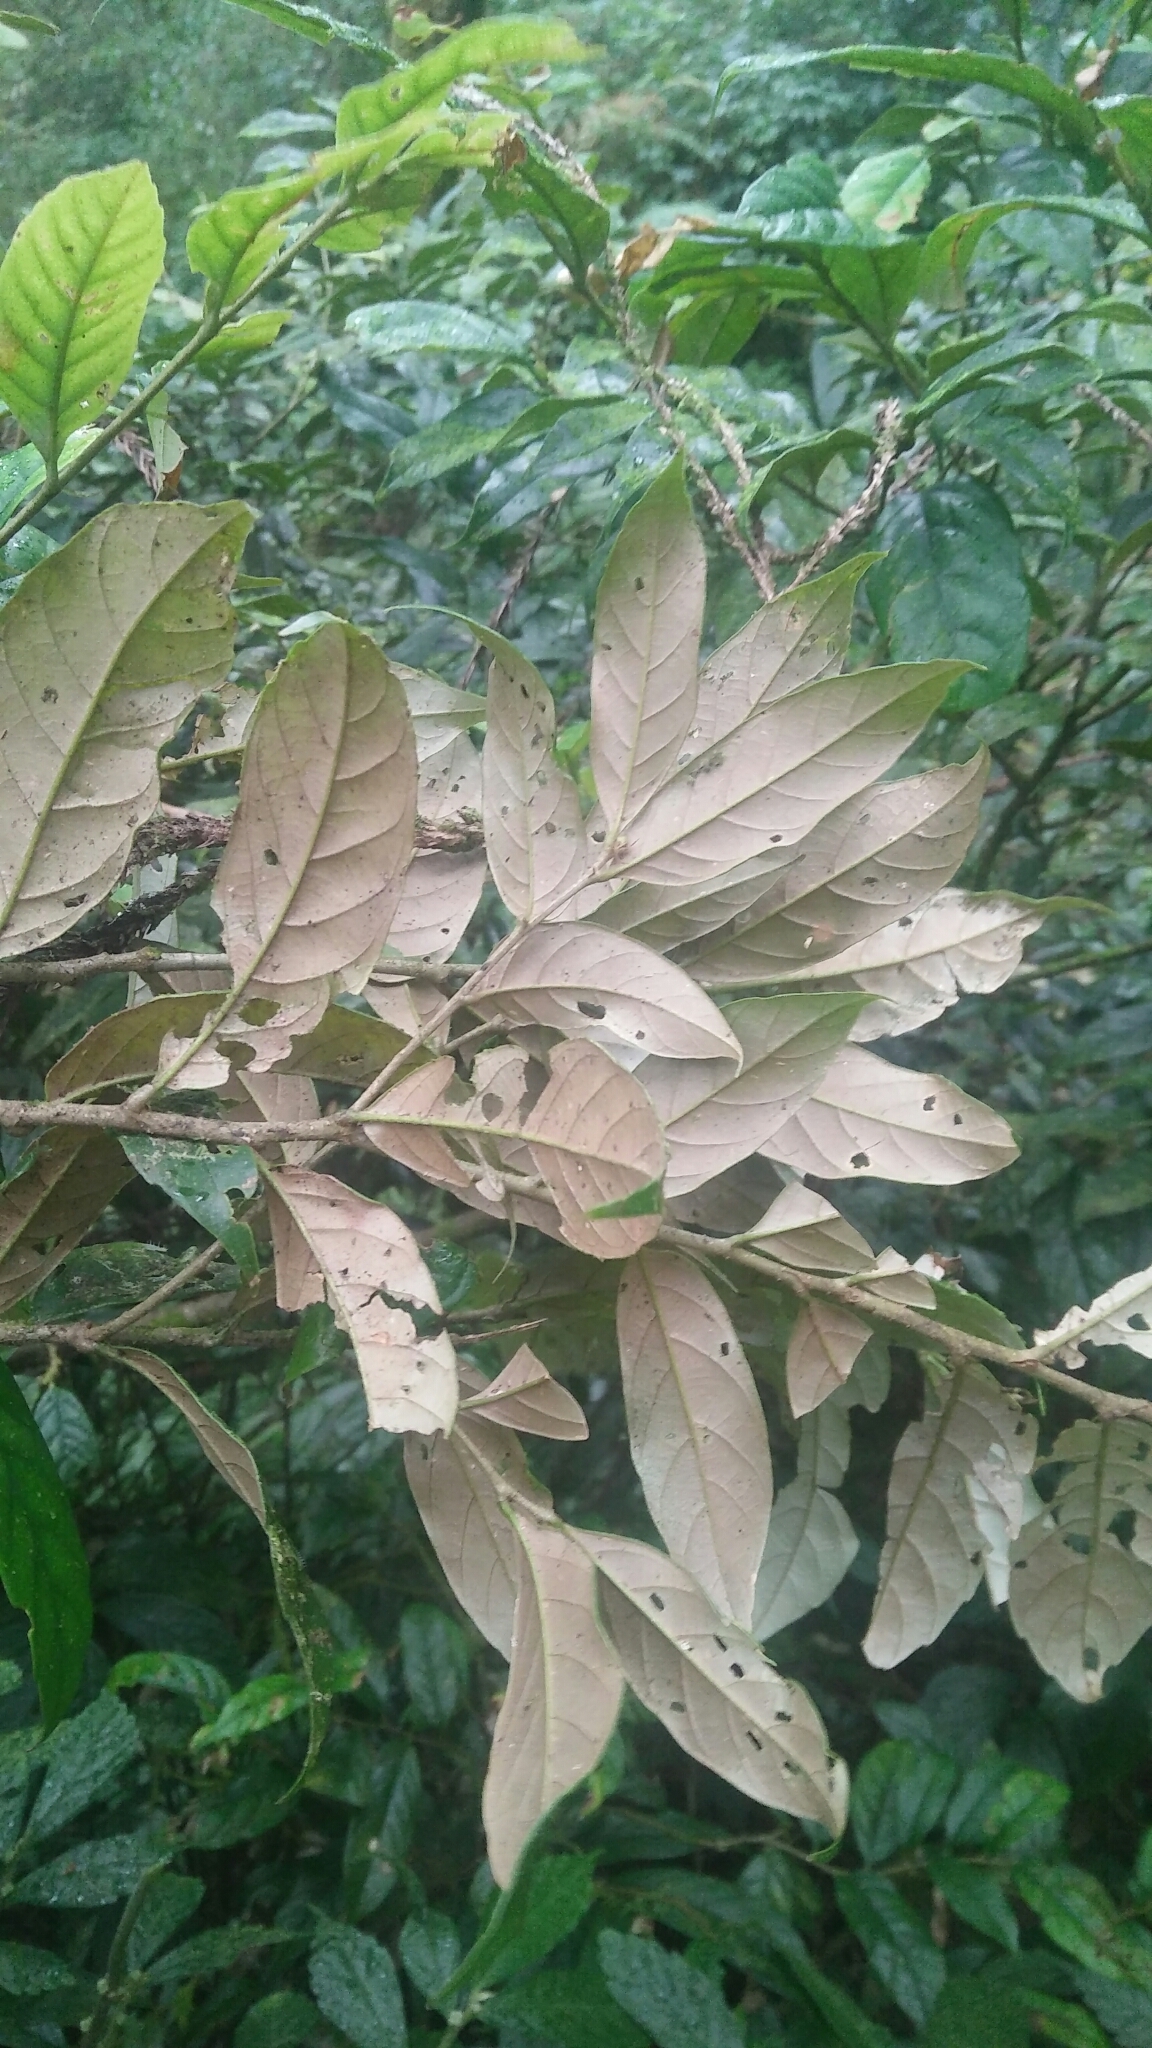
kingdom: Plantae
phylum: Tracheophyta
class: Magnoliopsida
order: Fagales
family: Fagaceae
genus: Castanopsis
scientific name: Castanopsis faberi
